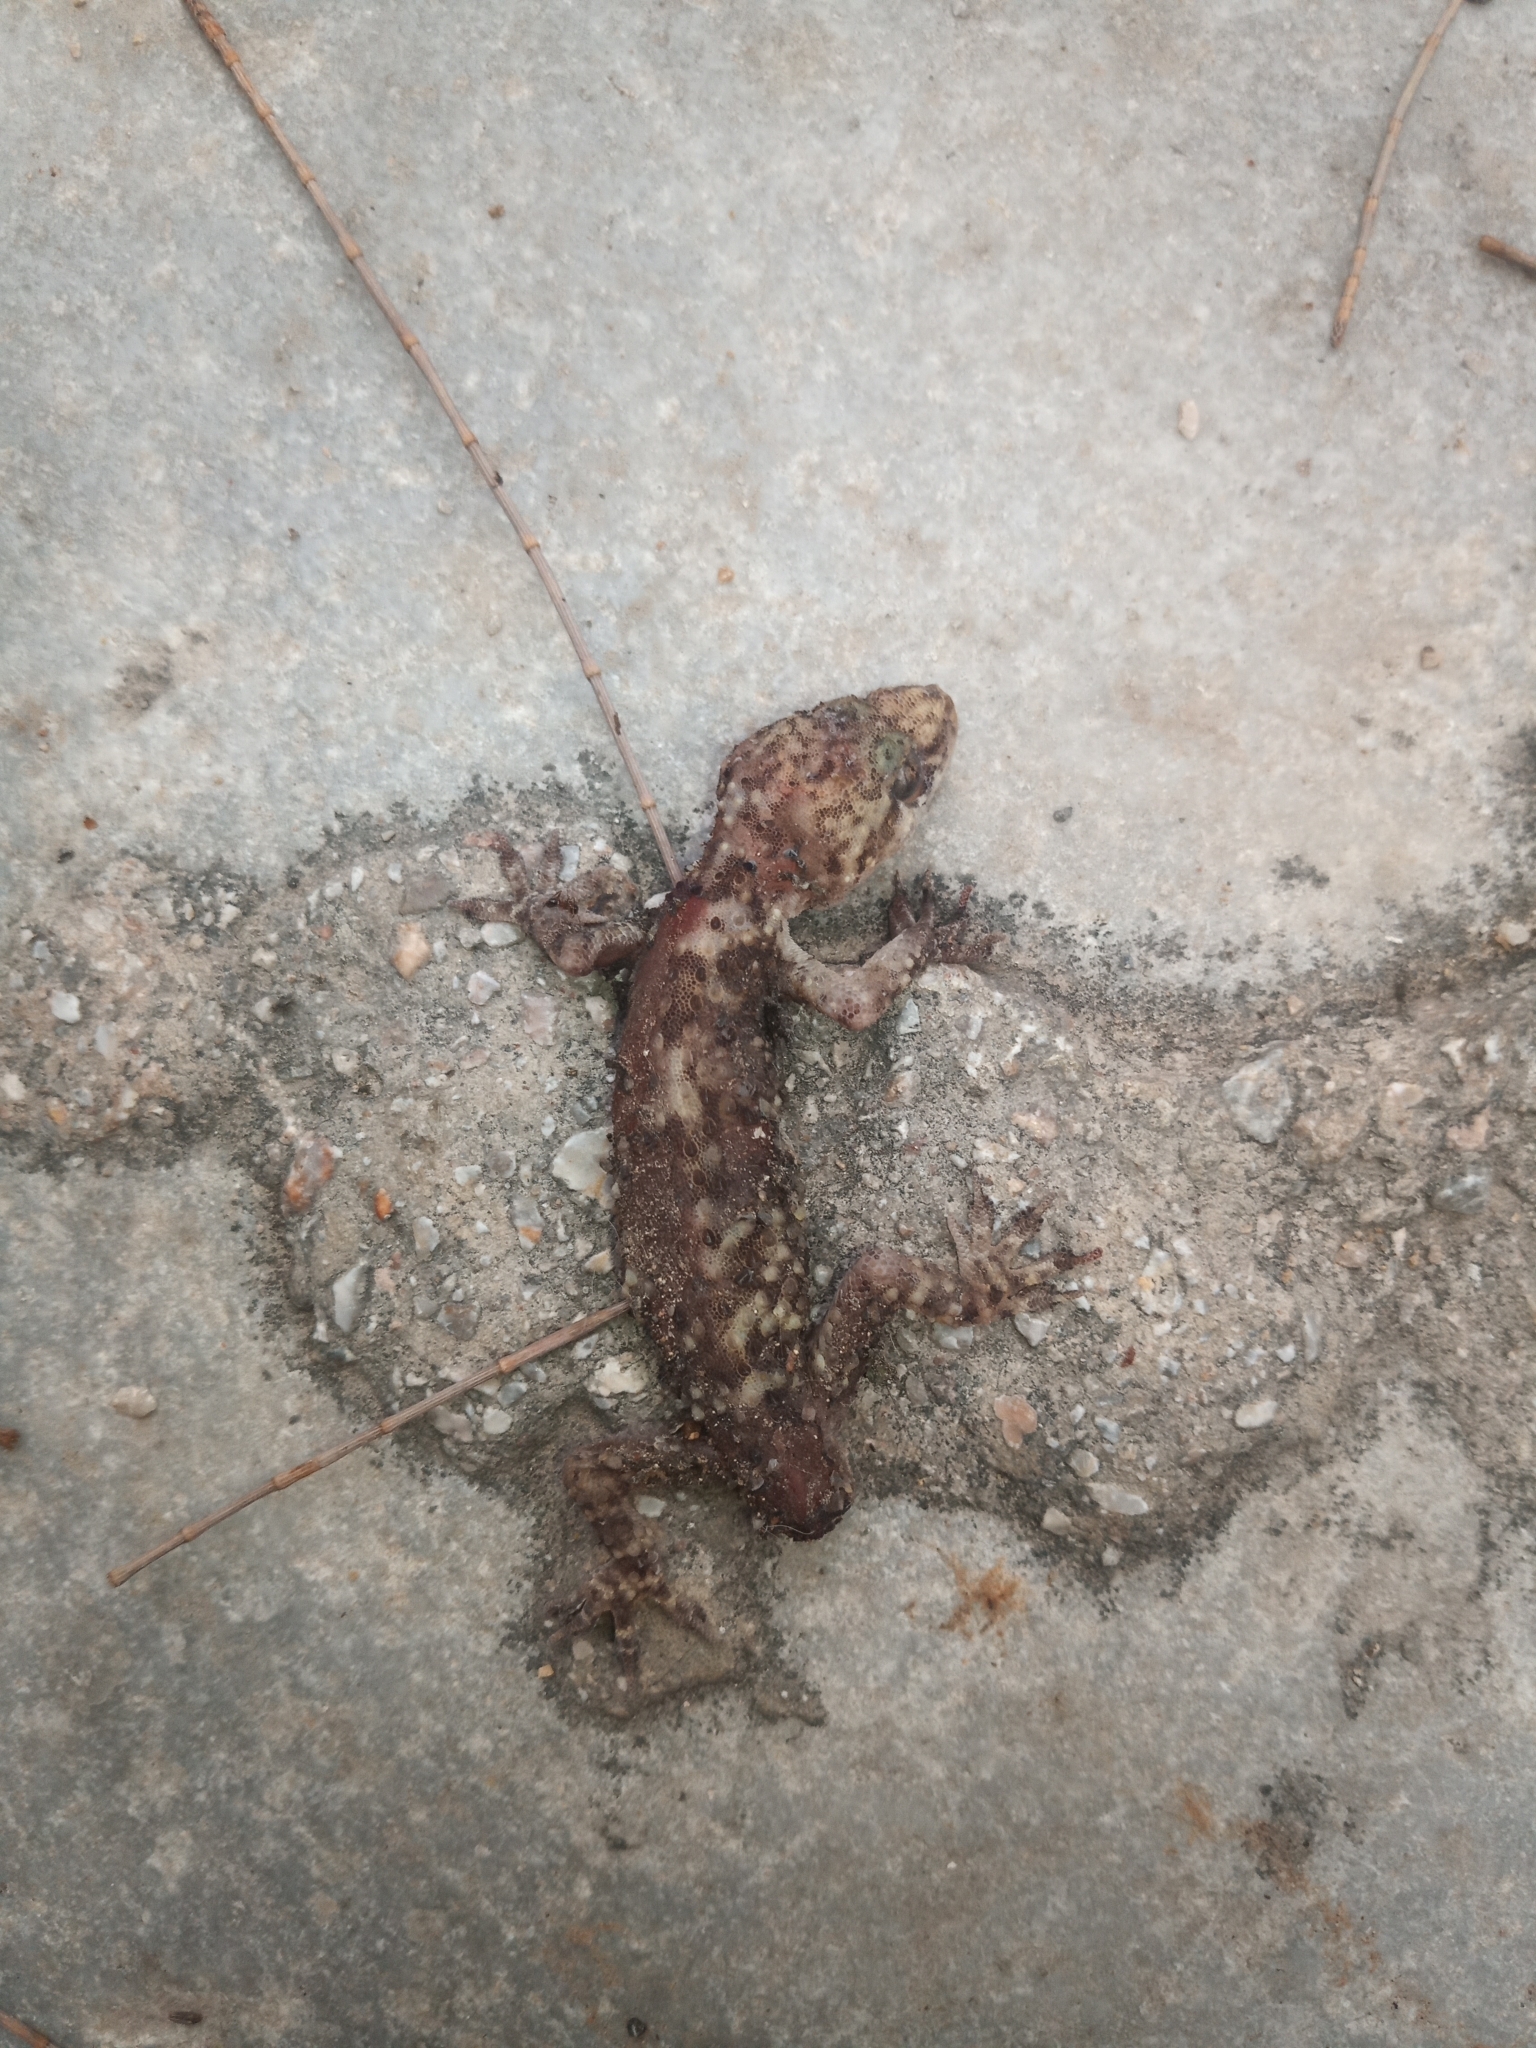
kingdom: Animalia
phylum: Chordata
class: Squamata
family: Gekkonidae
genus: Hemidactylus
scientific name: Hemidactylus turcicus
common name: Turkish gecko
